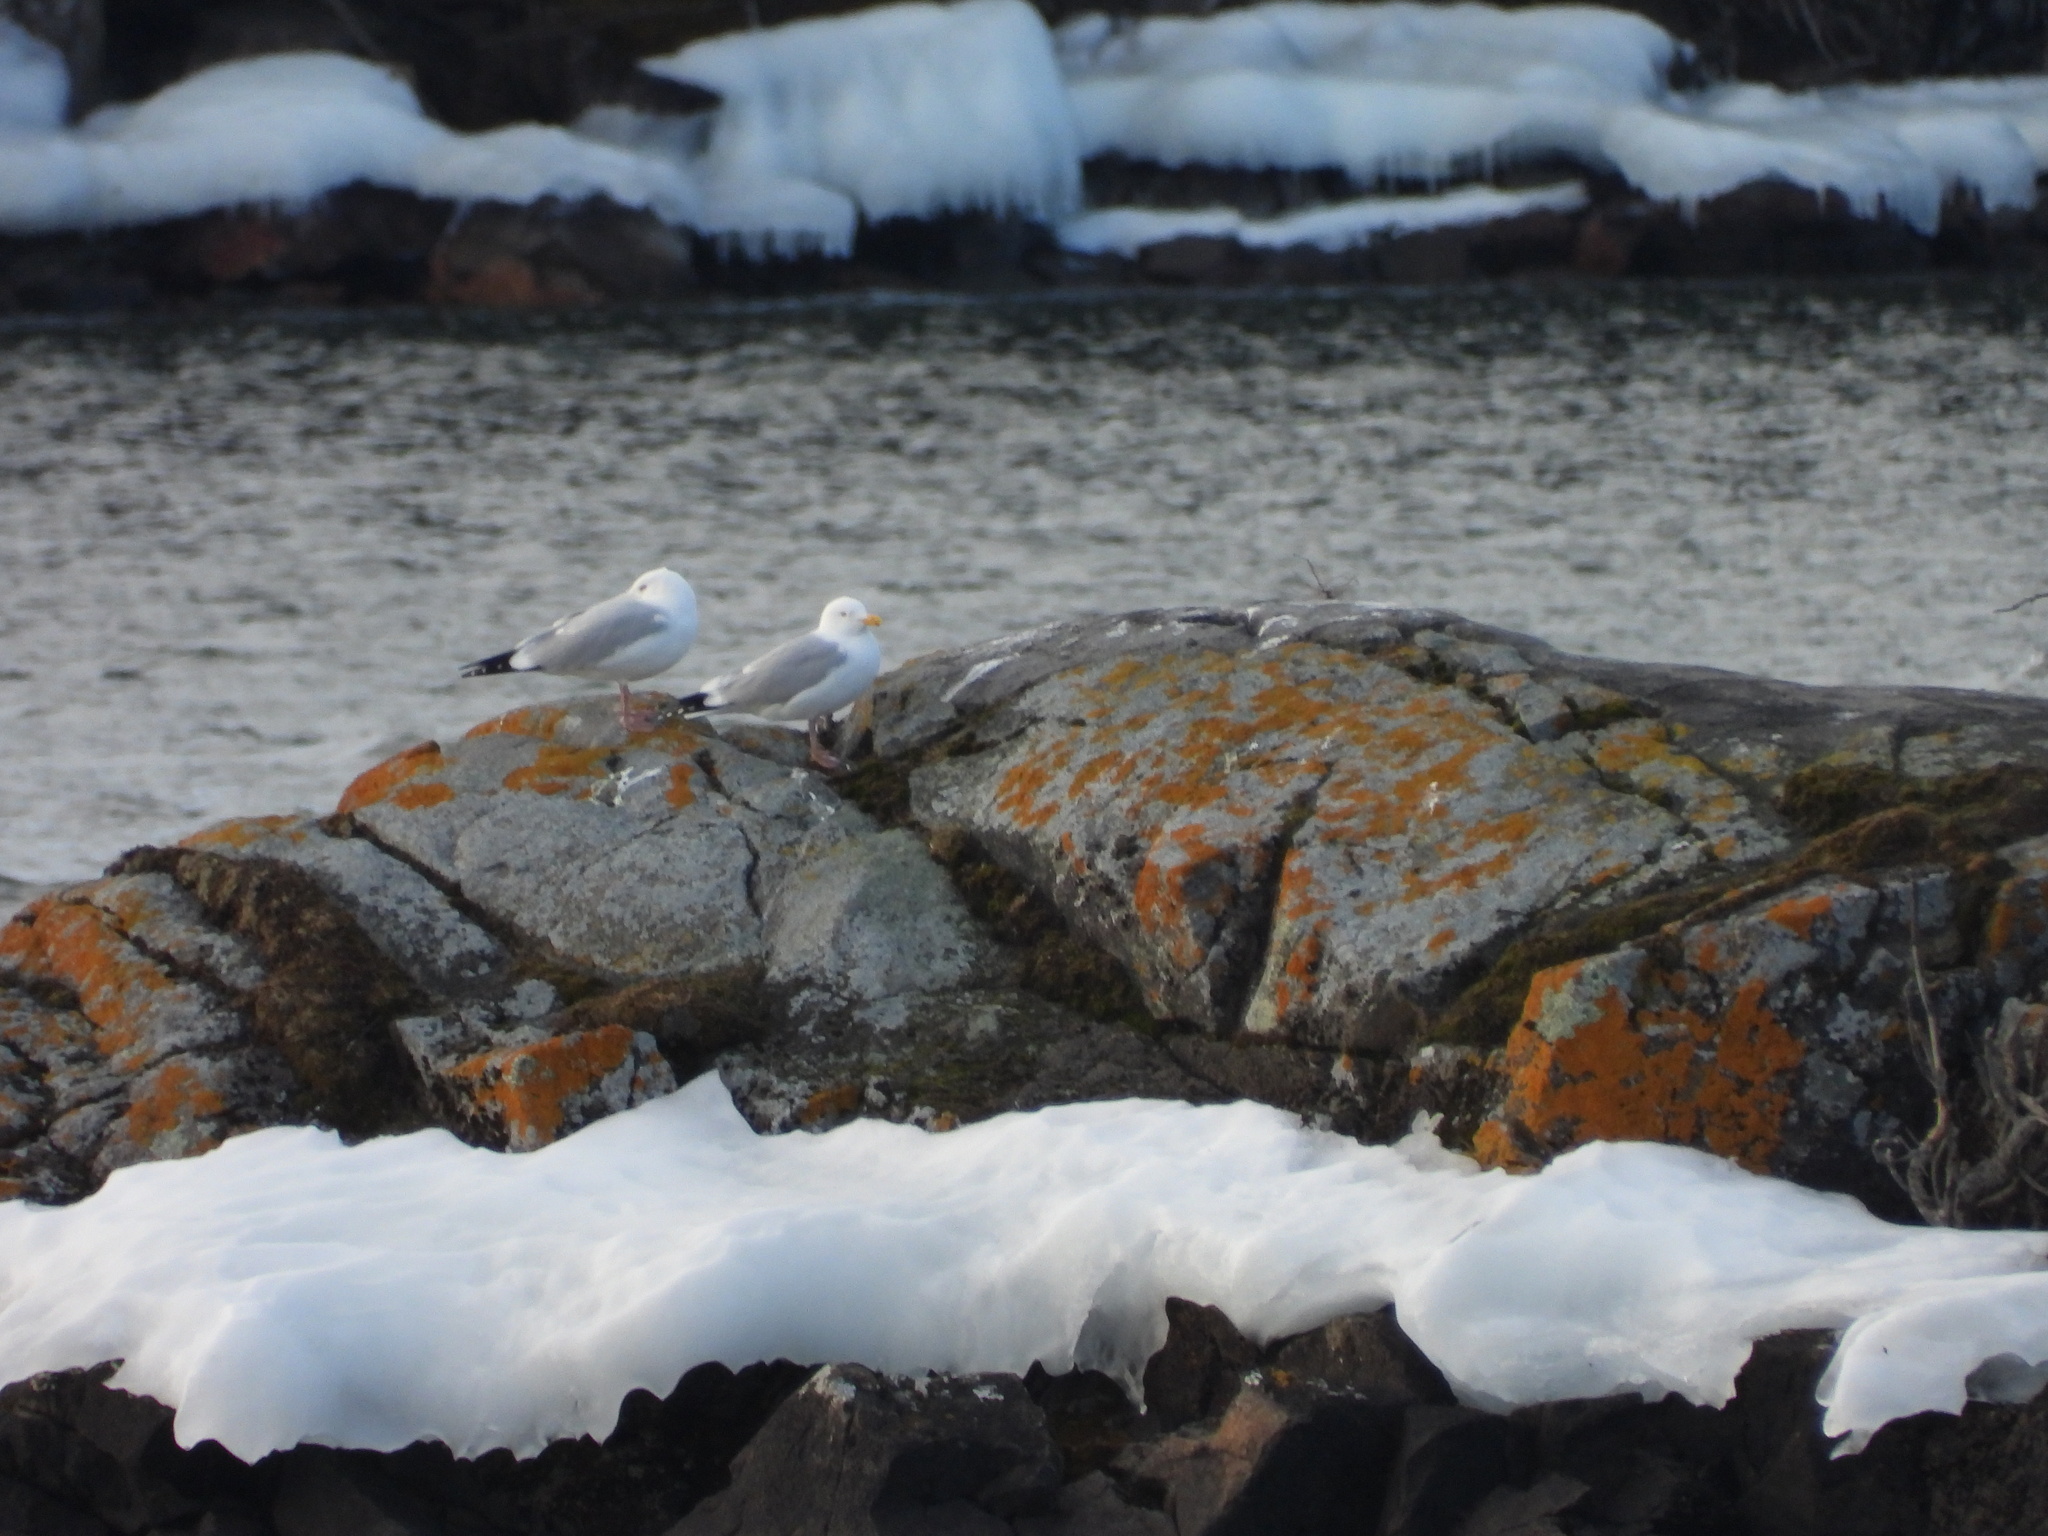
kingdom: Animalia
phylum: Chordata
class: Aves
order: Charadriiformes
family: Laridae
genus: Larus
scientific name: Larus argentatus
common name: Herring gull
